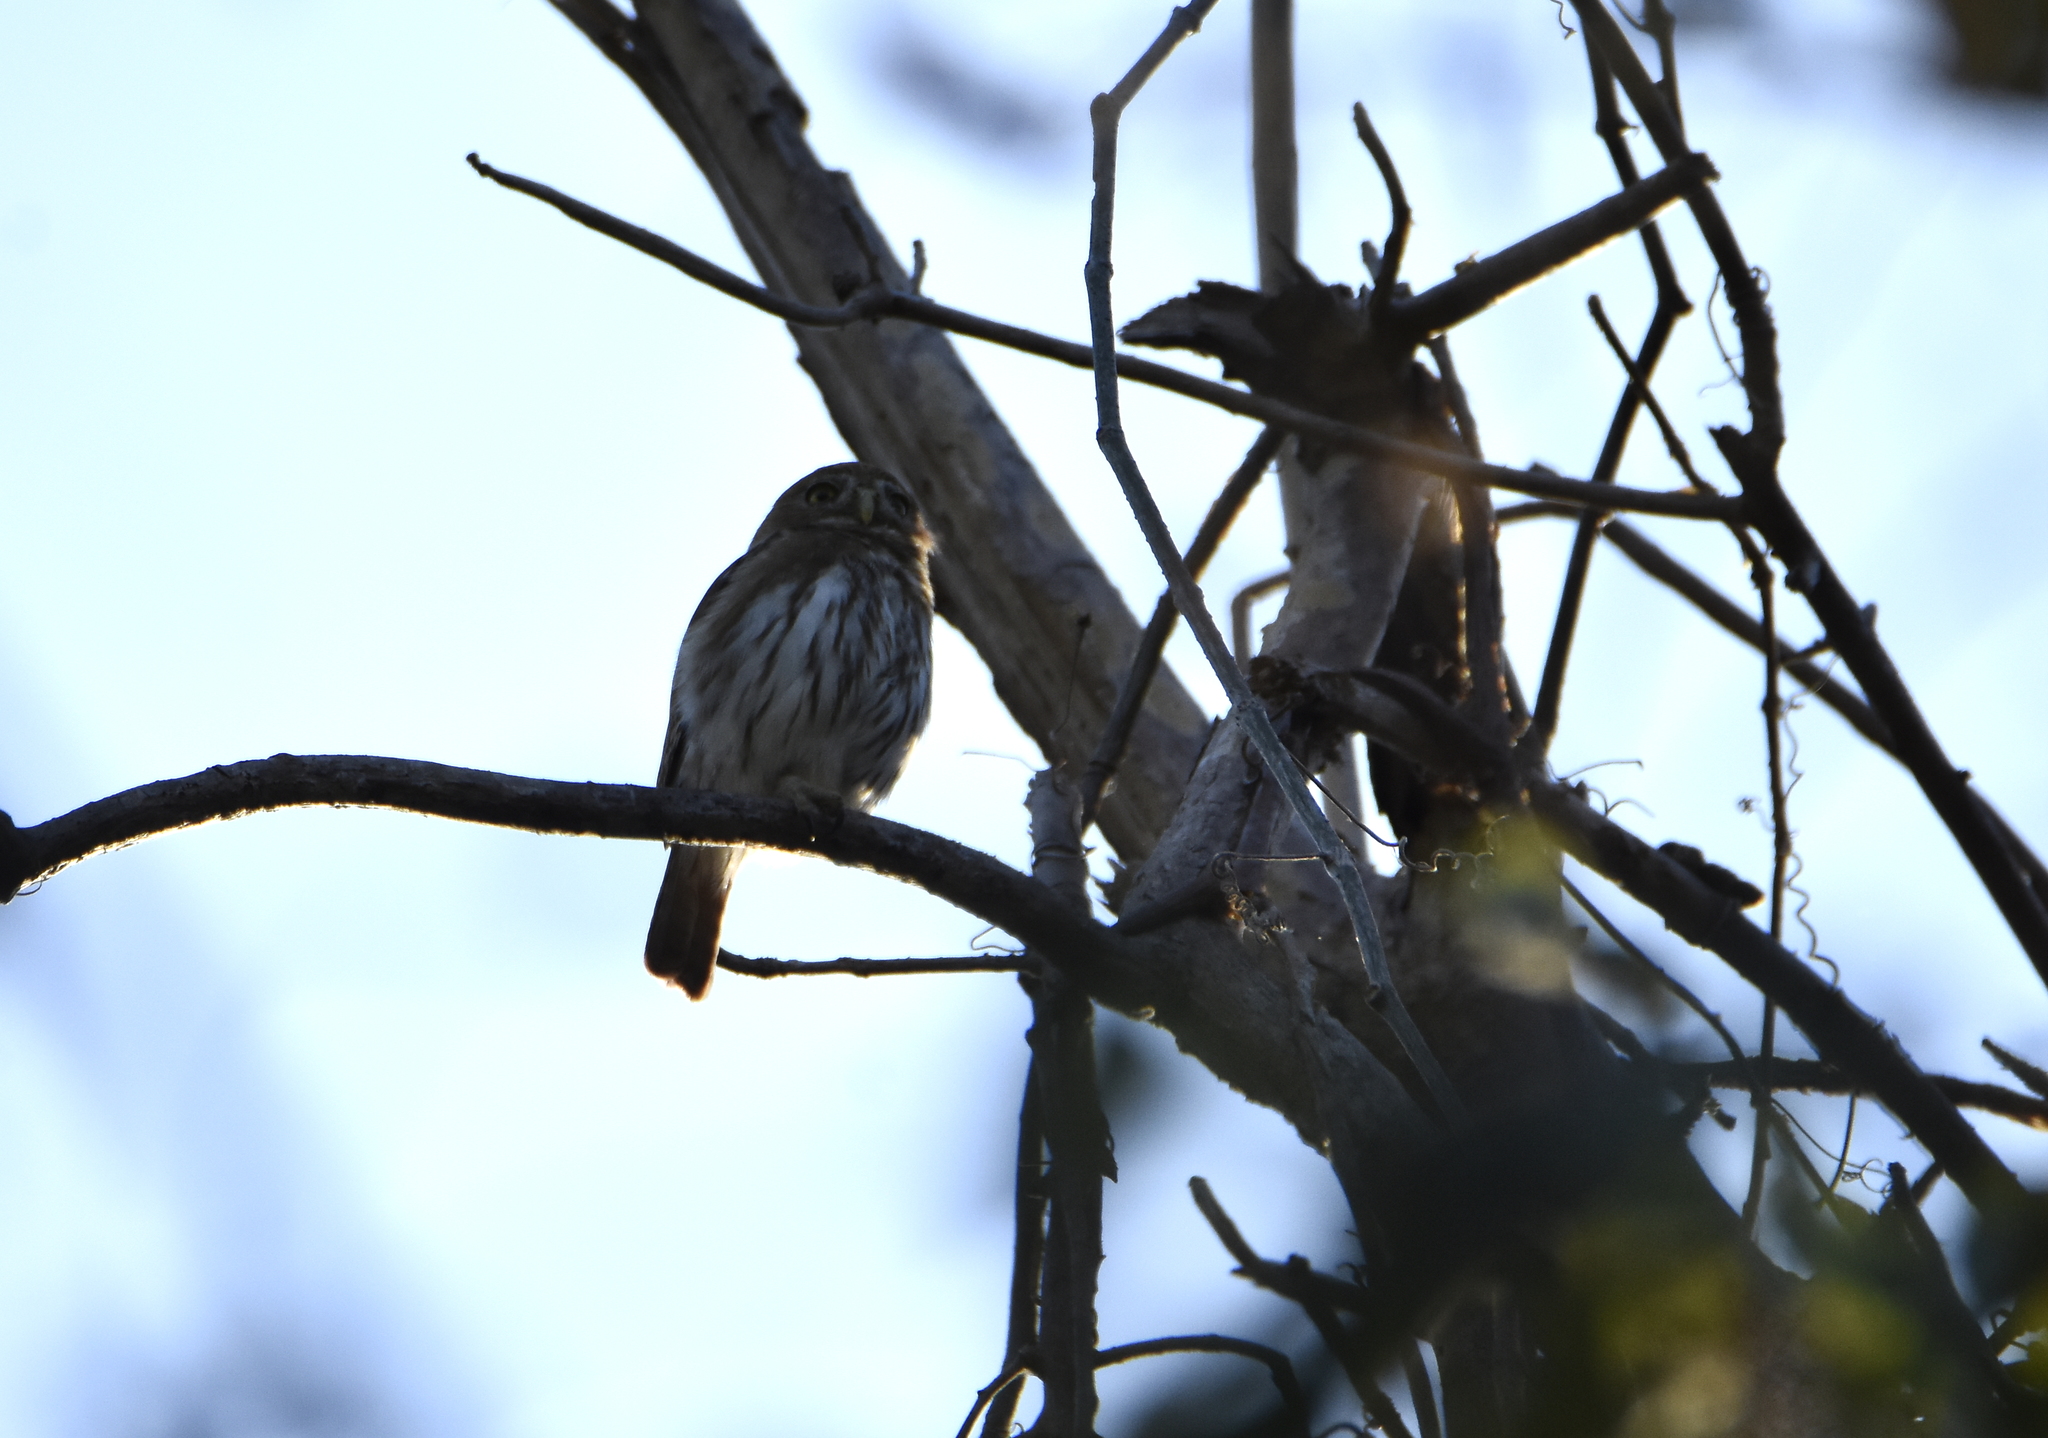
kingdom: Animalia
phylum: Chordata
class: Aves
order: Strigiformes
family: Strigidae
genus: Glaucidium
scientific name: Glaucidium brasilianum
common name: Ferruginous pygmy-owl
